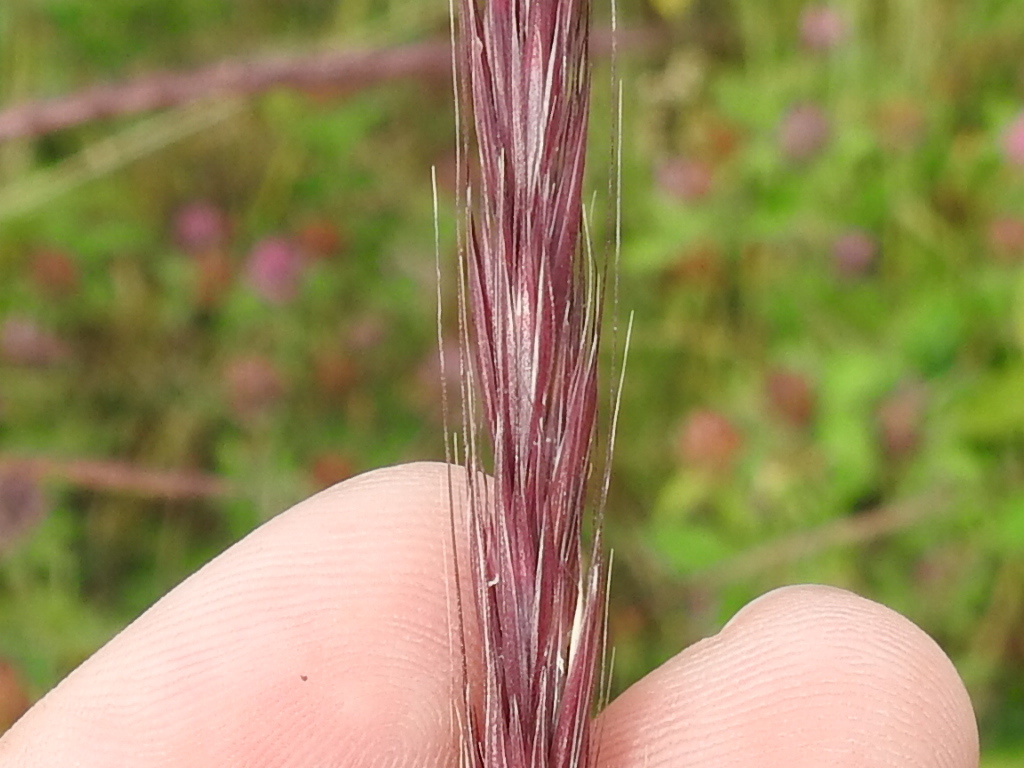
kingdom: Plantae
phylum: Tracheophyta
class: Liliopsida
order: Poales
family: Poaceae
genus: Elymus
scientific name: Elymus glaucus
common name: Blue wild rye
